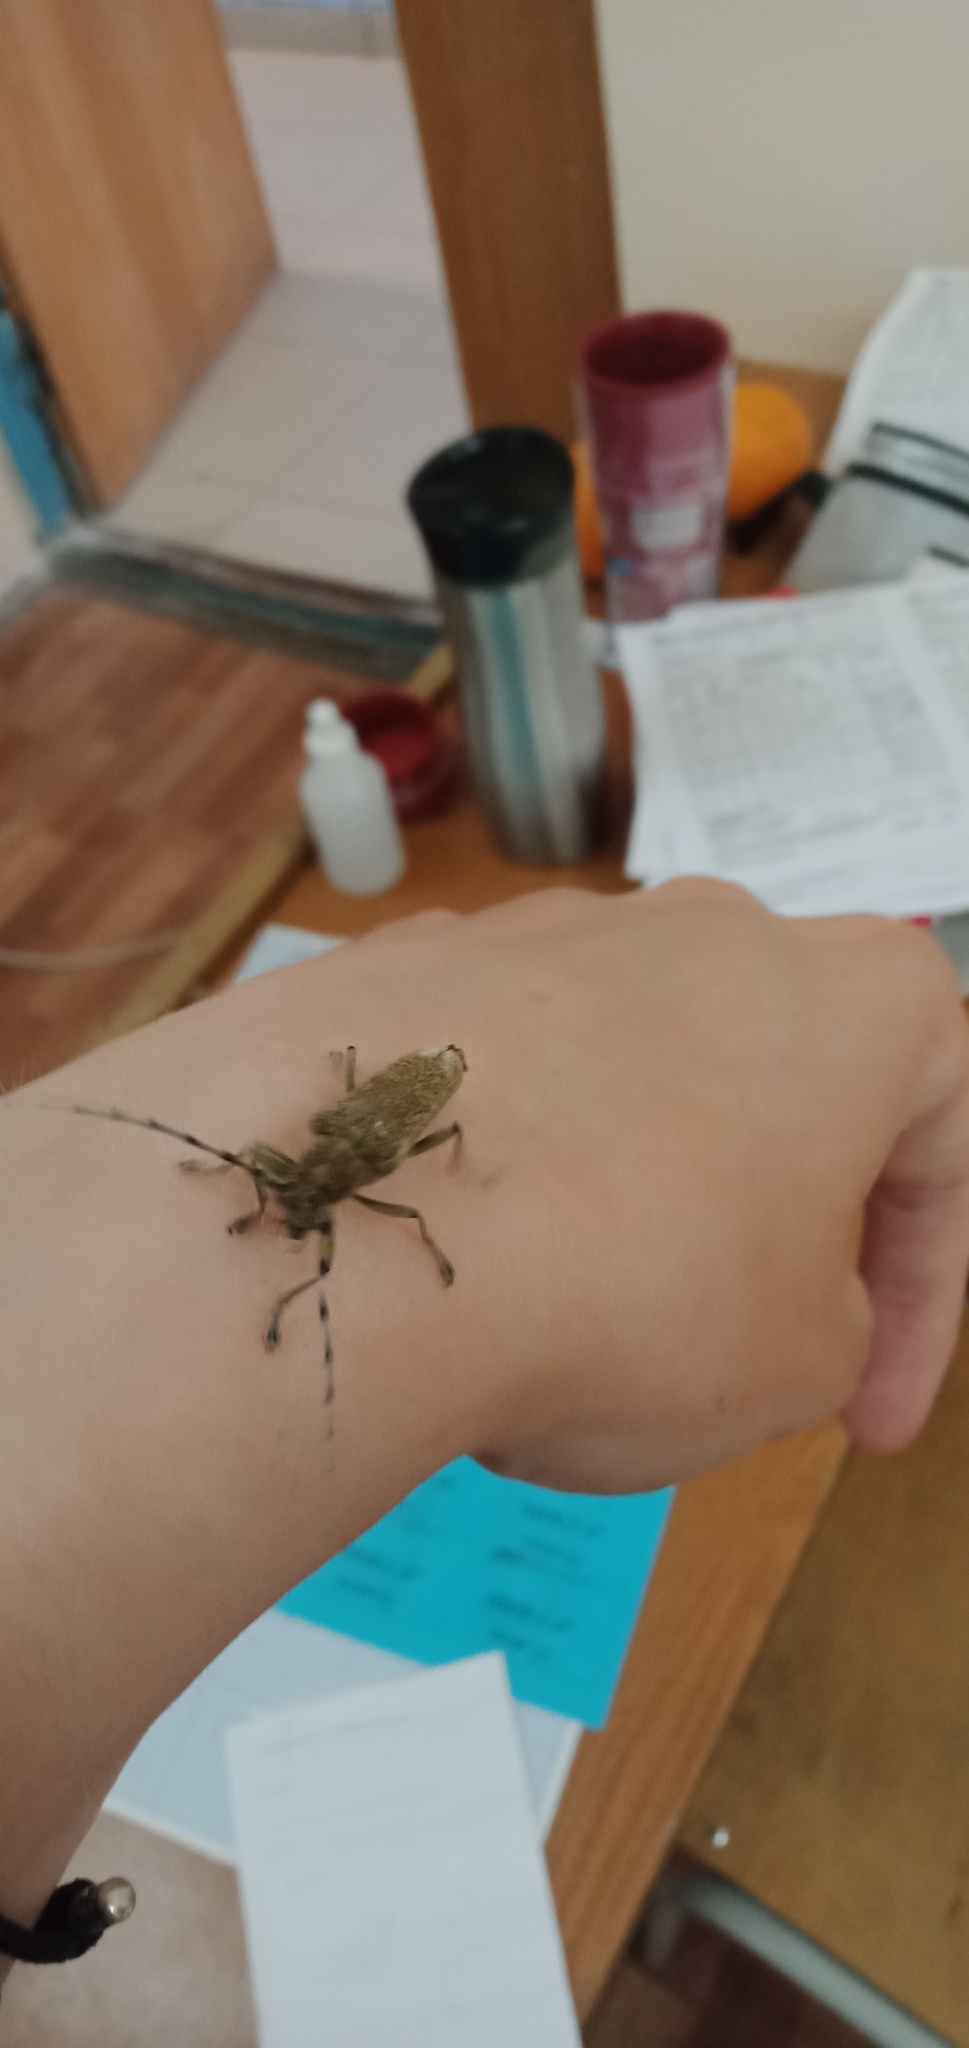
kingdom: Animalia
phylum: Arthropoda
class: Insecta
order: Coleoptera
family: Cerambycidae
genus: Saperda
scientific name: Saperda carcharias
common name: Poplar borer
